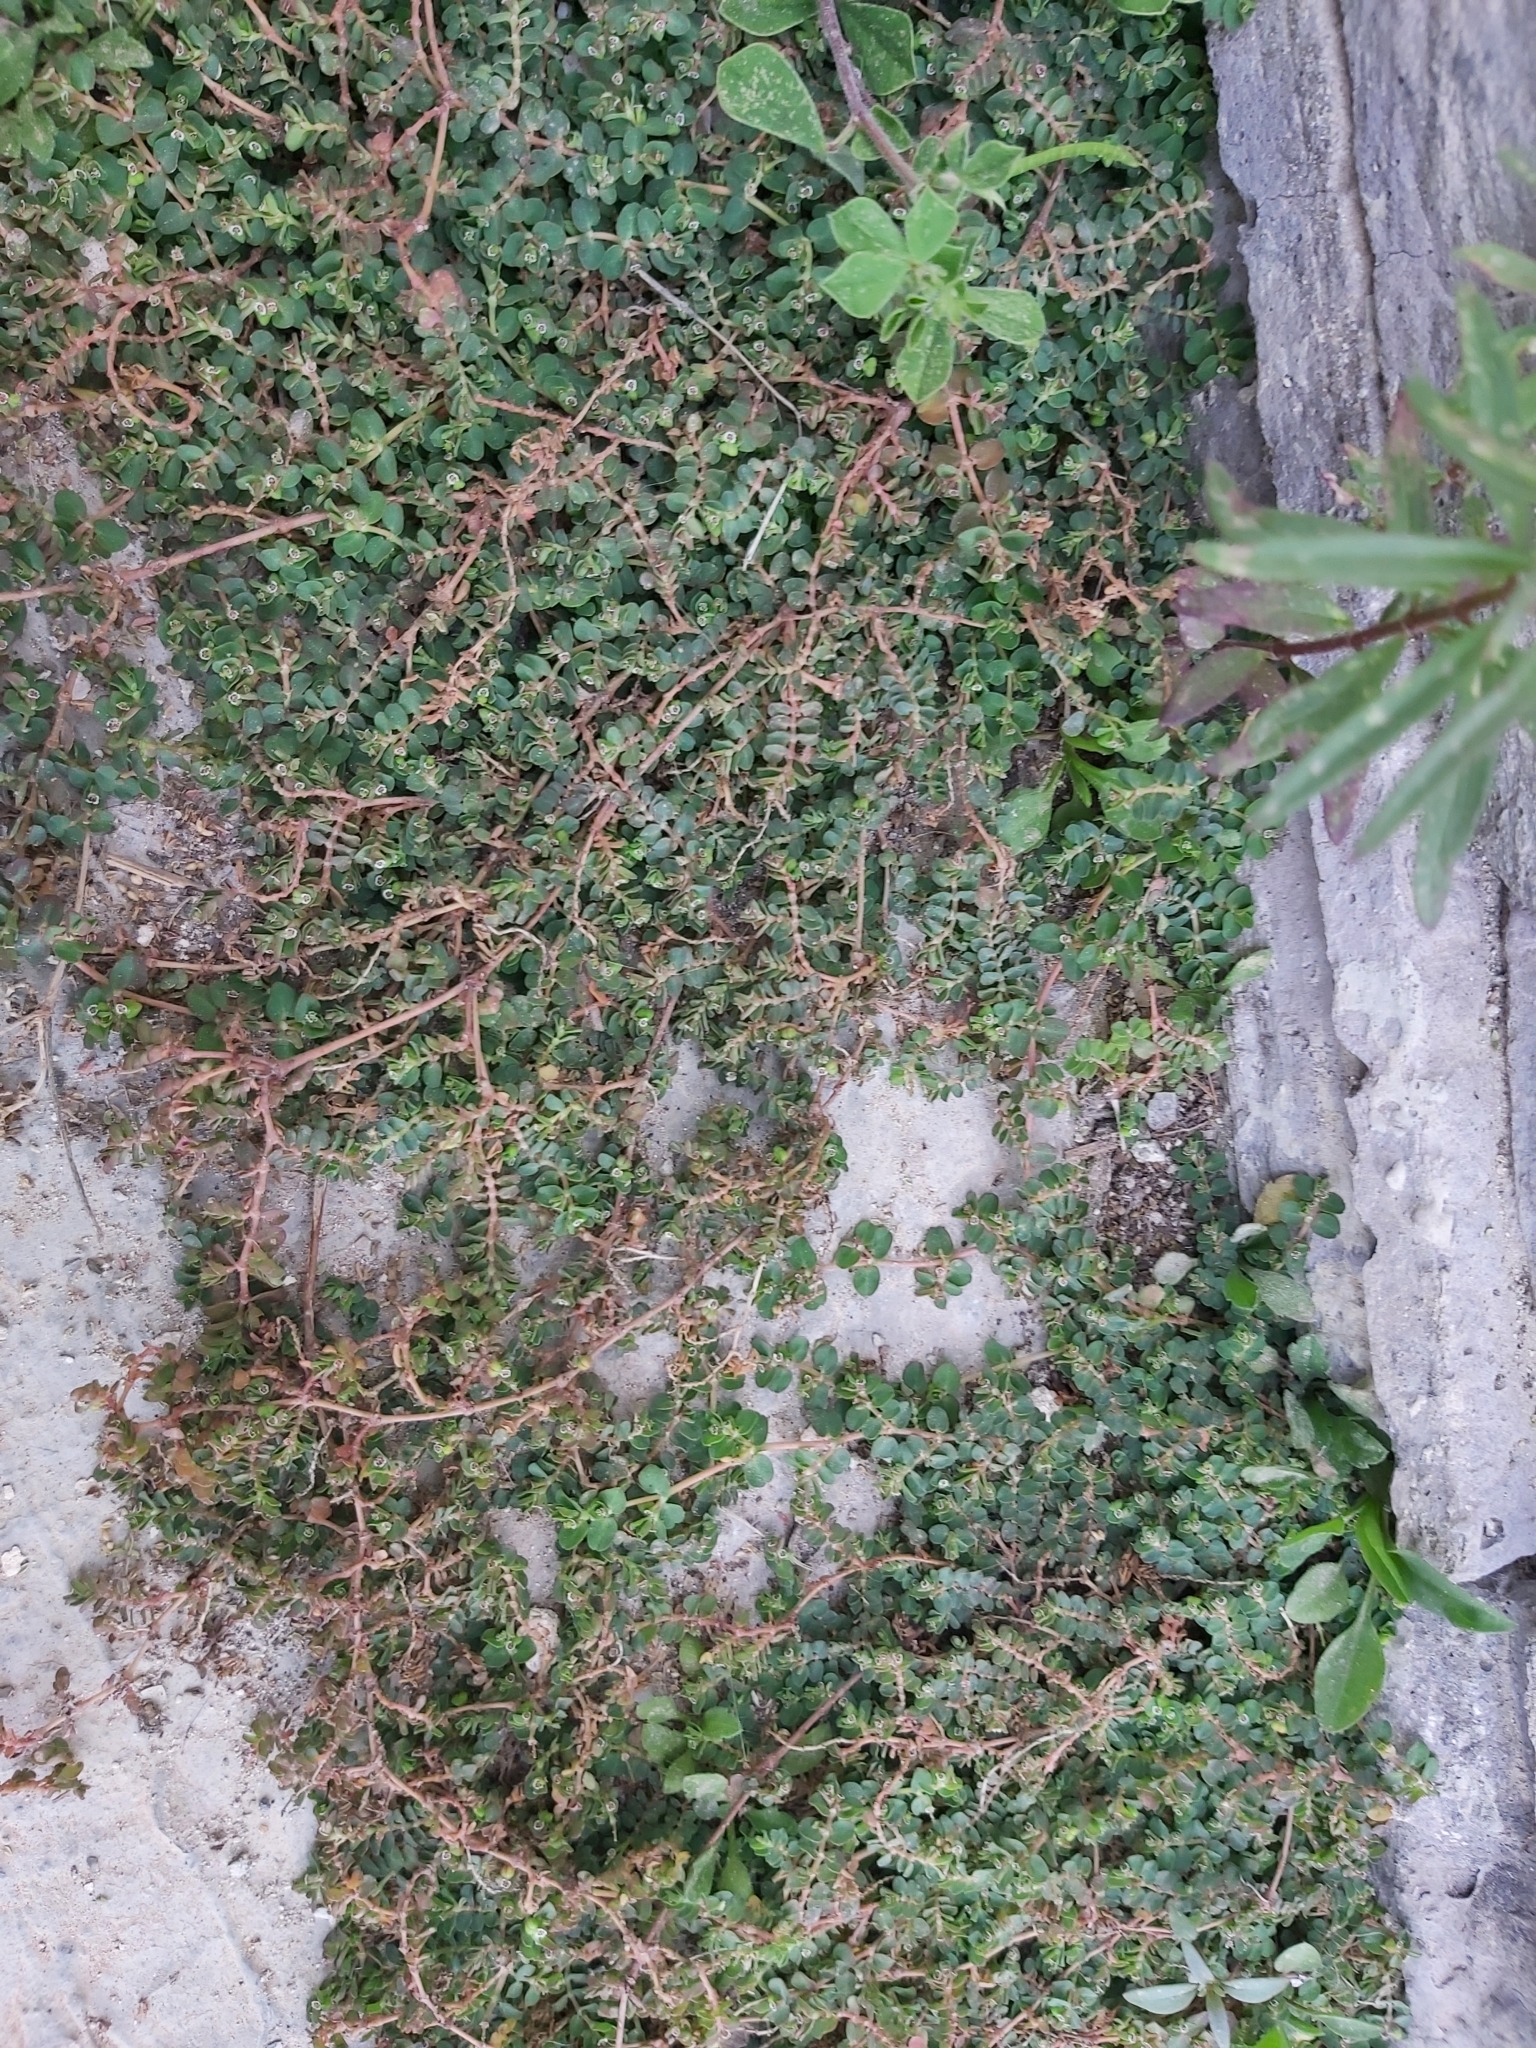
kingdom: Plantae
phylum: Tracheophyta
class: Magnoliopsida
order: Malpighiales
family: Euphorbiaceae
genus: Euphorbia
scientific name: Euphorbia serpens
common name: Matted sandmat
